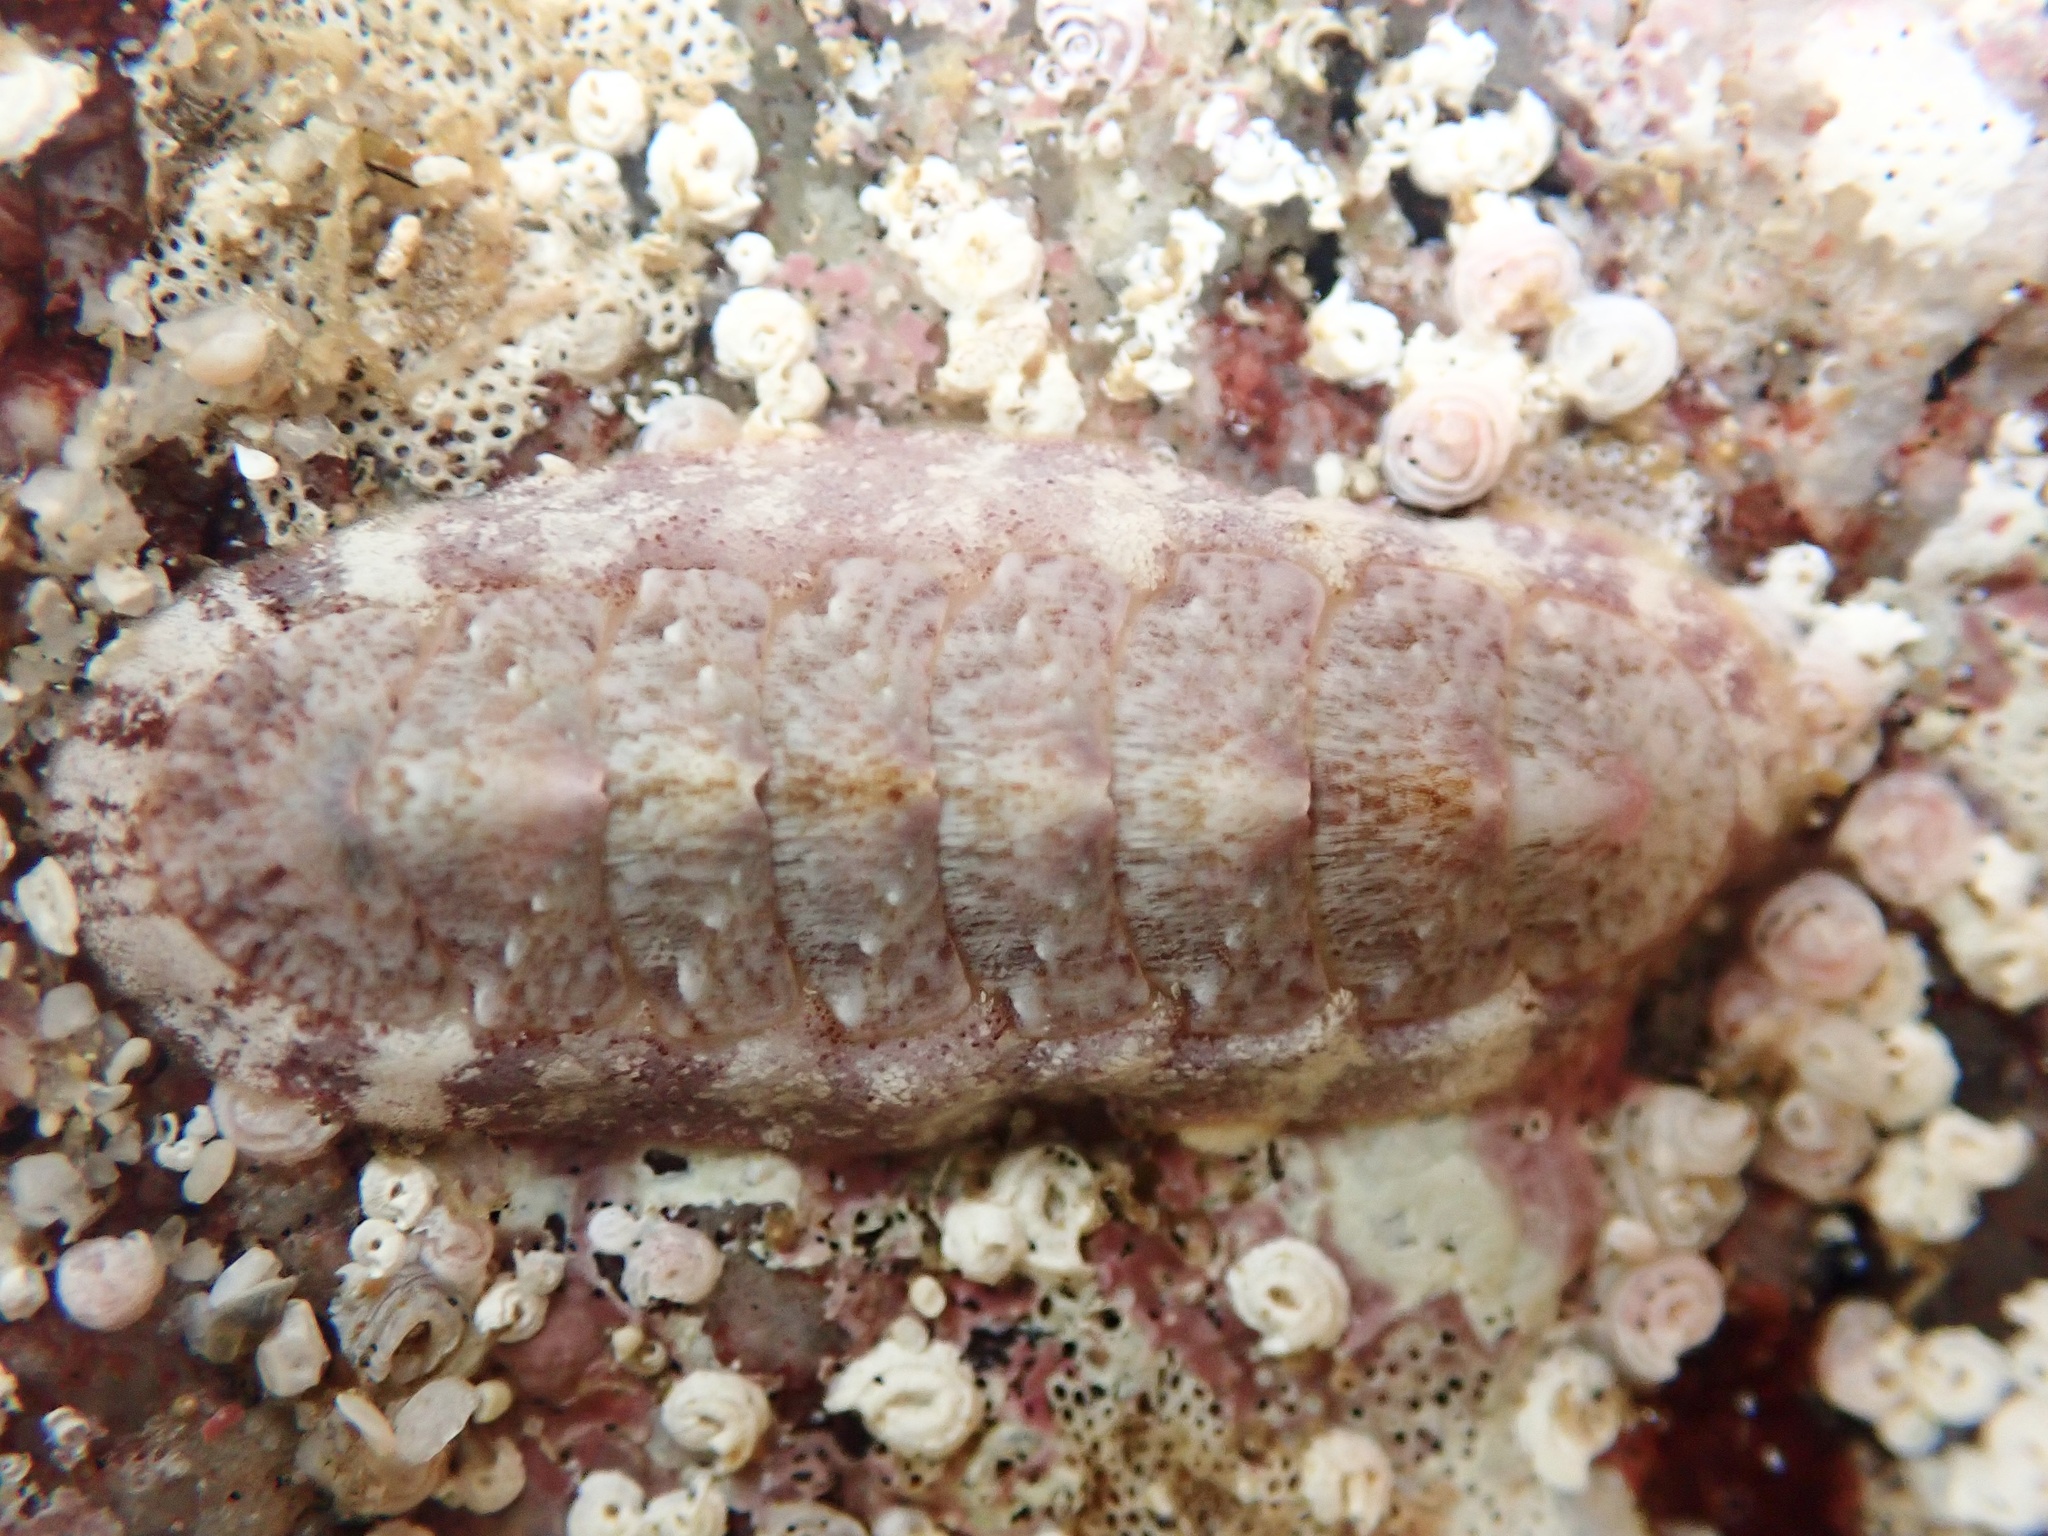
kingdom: Animalia
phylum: Mollusca
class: Polyplacophora
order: Chitonida
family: Ischnochitonidae
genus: Stenoplax
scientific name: Stenoplax heathiana
